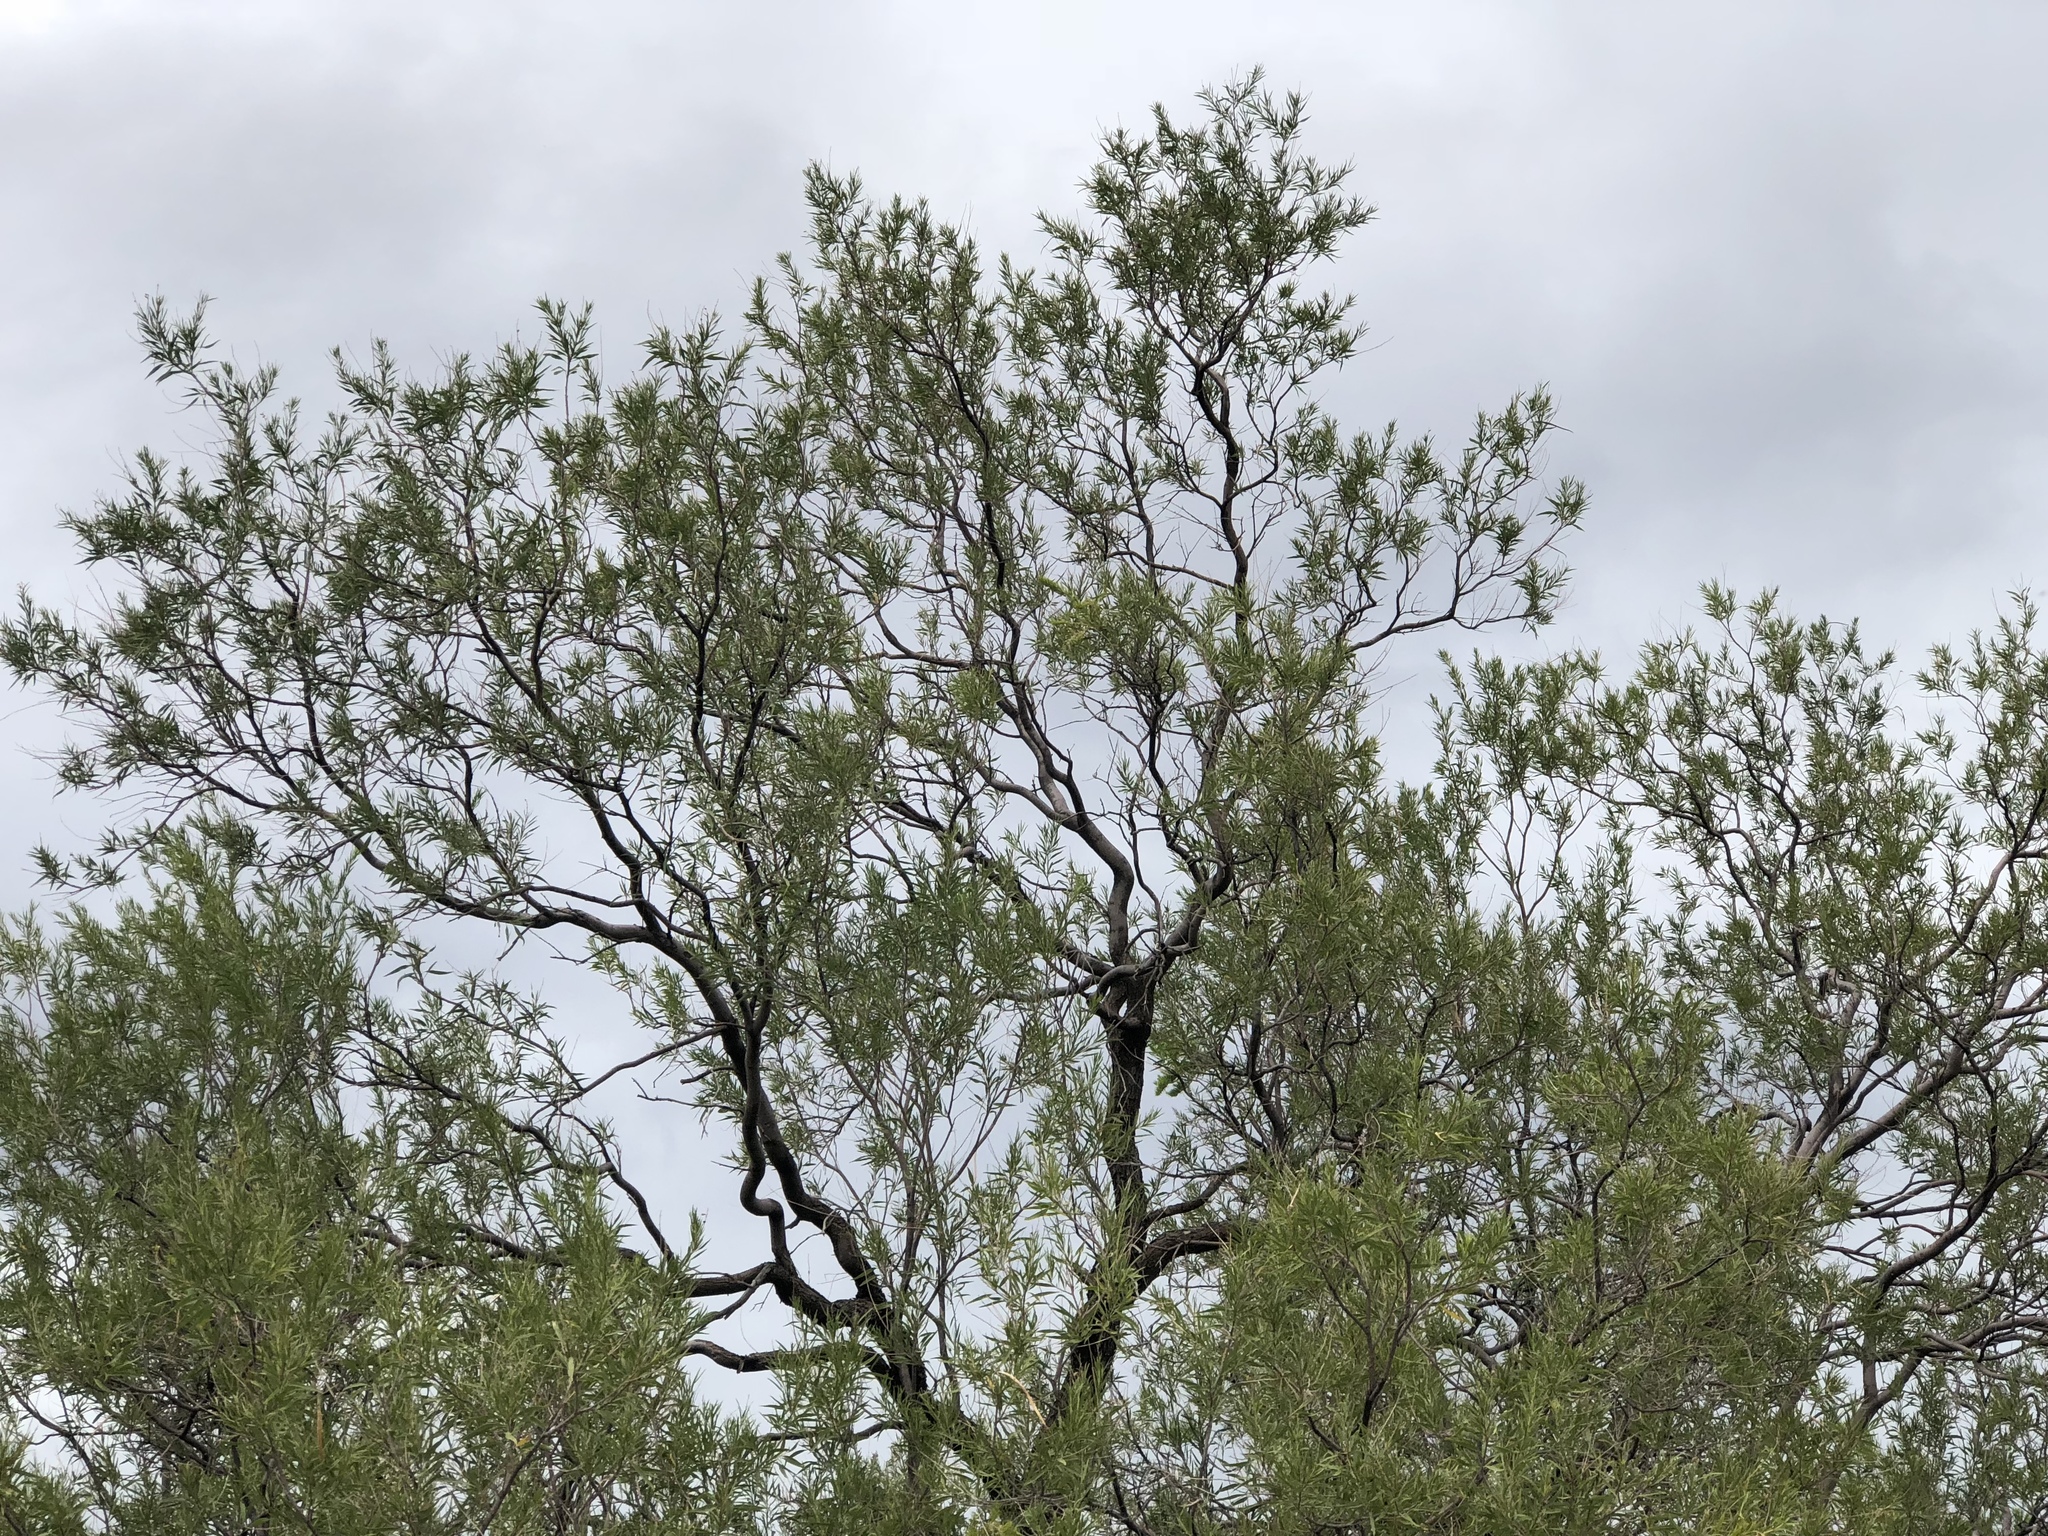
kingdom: Plantae
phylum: Tracheophyta
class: Magnoliopsida
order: Lamiales
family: Bignoniaceae
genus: Chilopsis
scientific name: Chilopsis linearis
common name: Desert-willow
